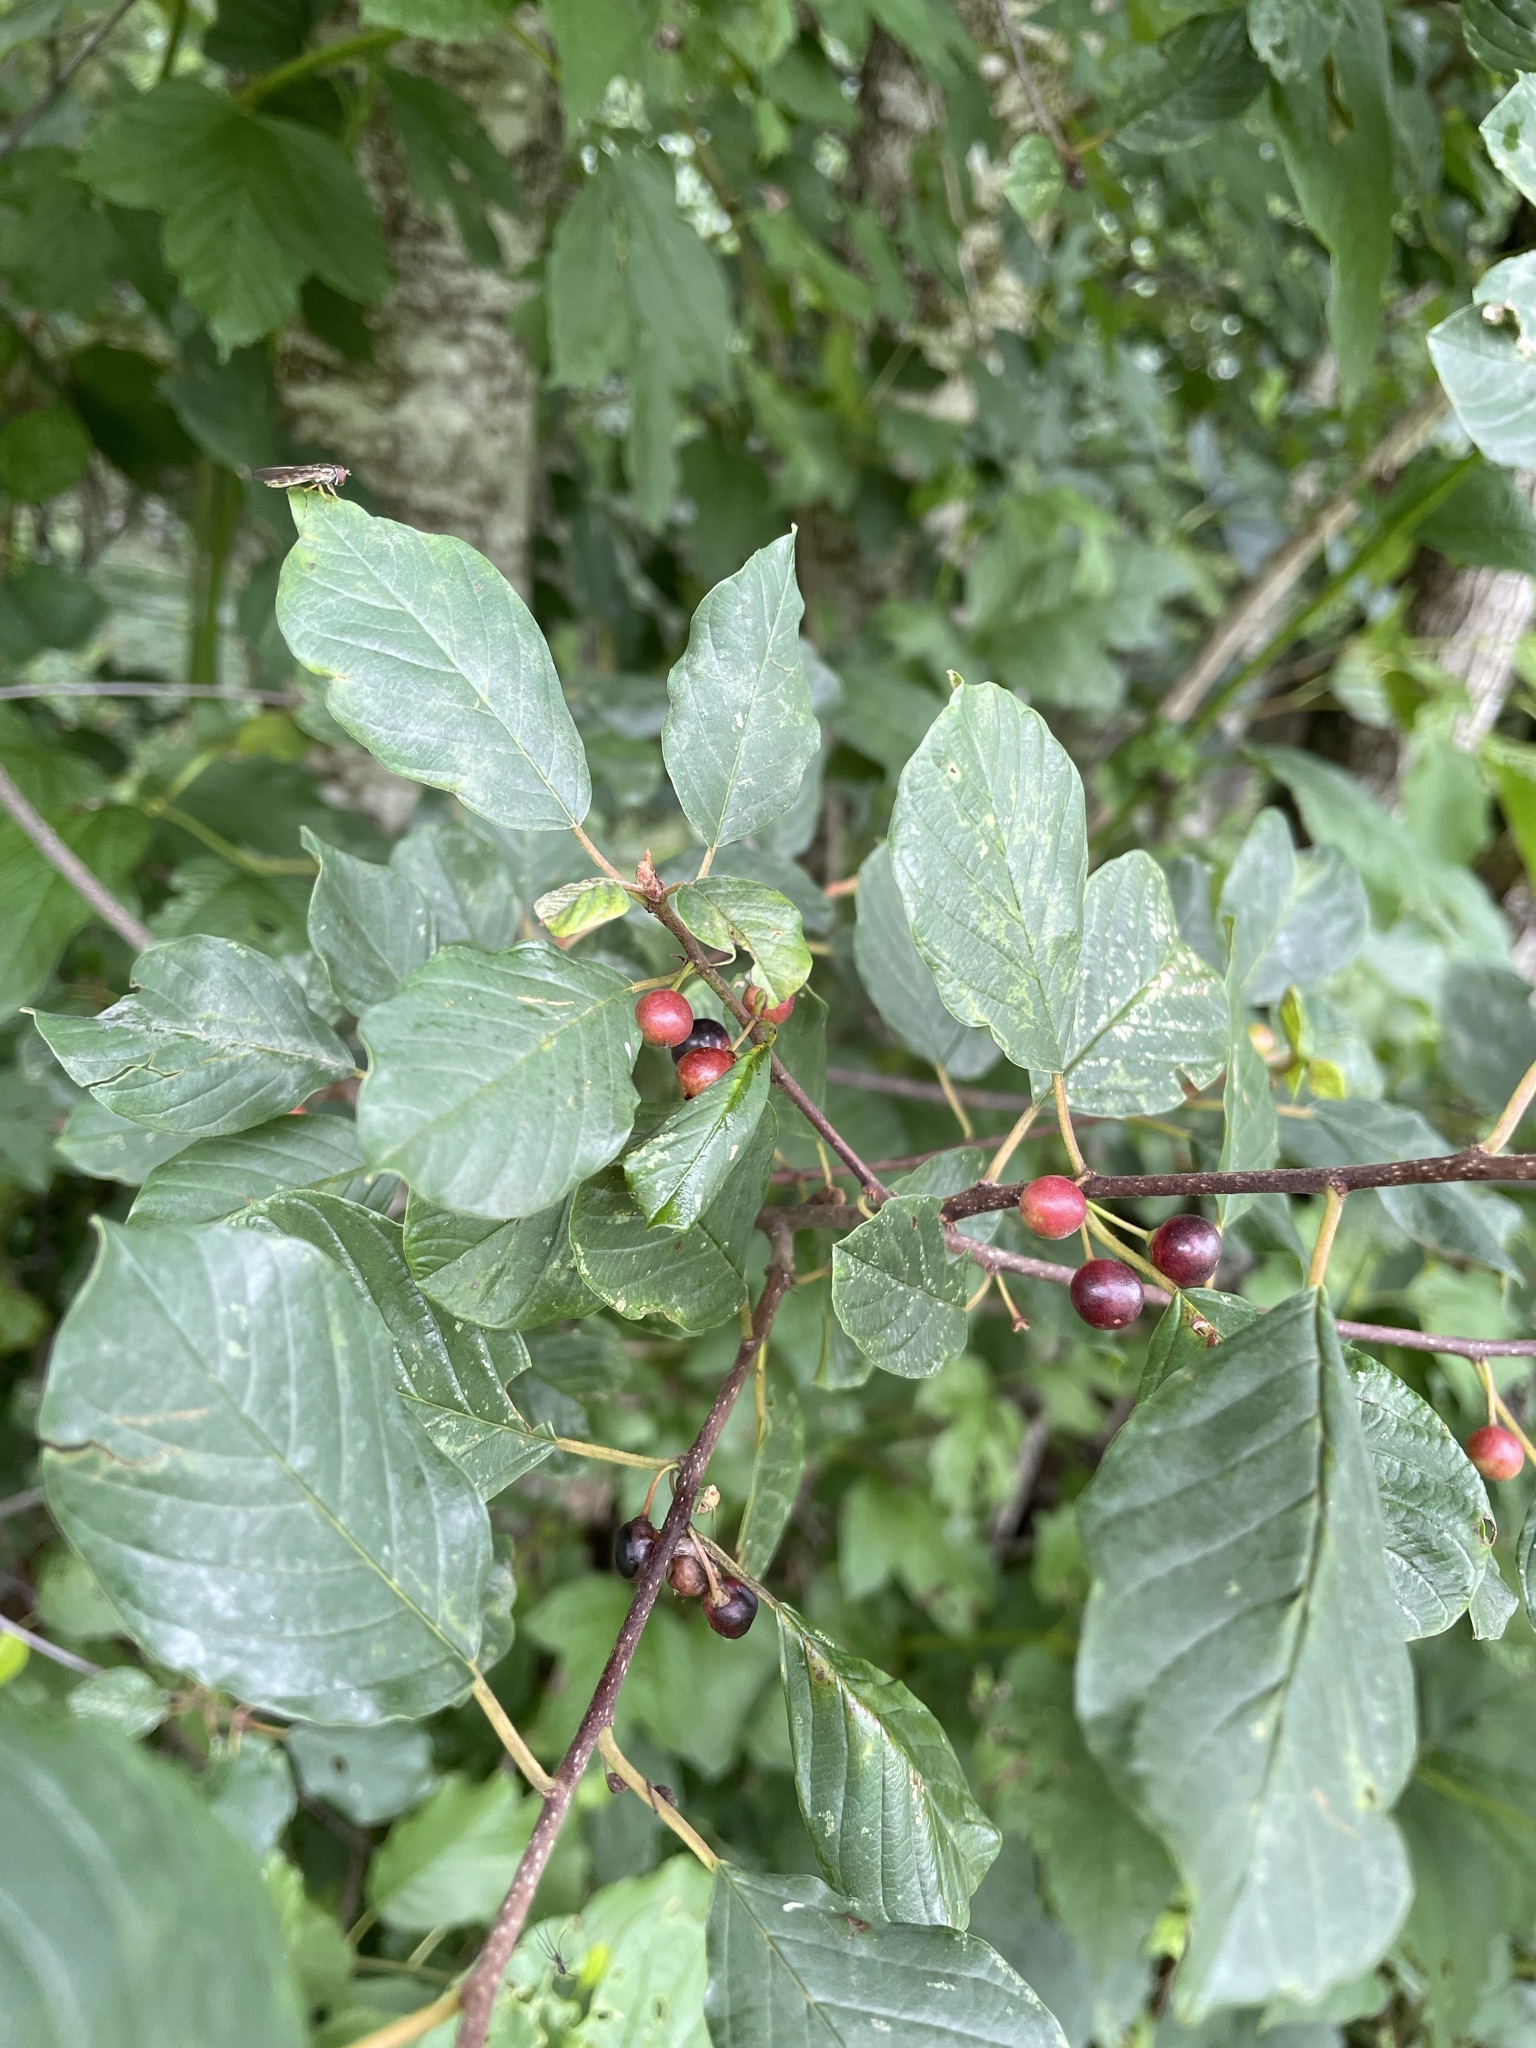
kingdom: Plantae
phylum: Tracheophyta
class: Magnoliopsida
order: Rosales
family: Rhamnaceae
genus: Frangula
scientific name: Frangula alnus
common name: Alder buckthorn
